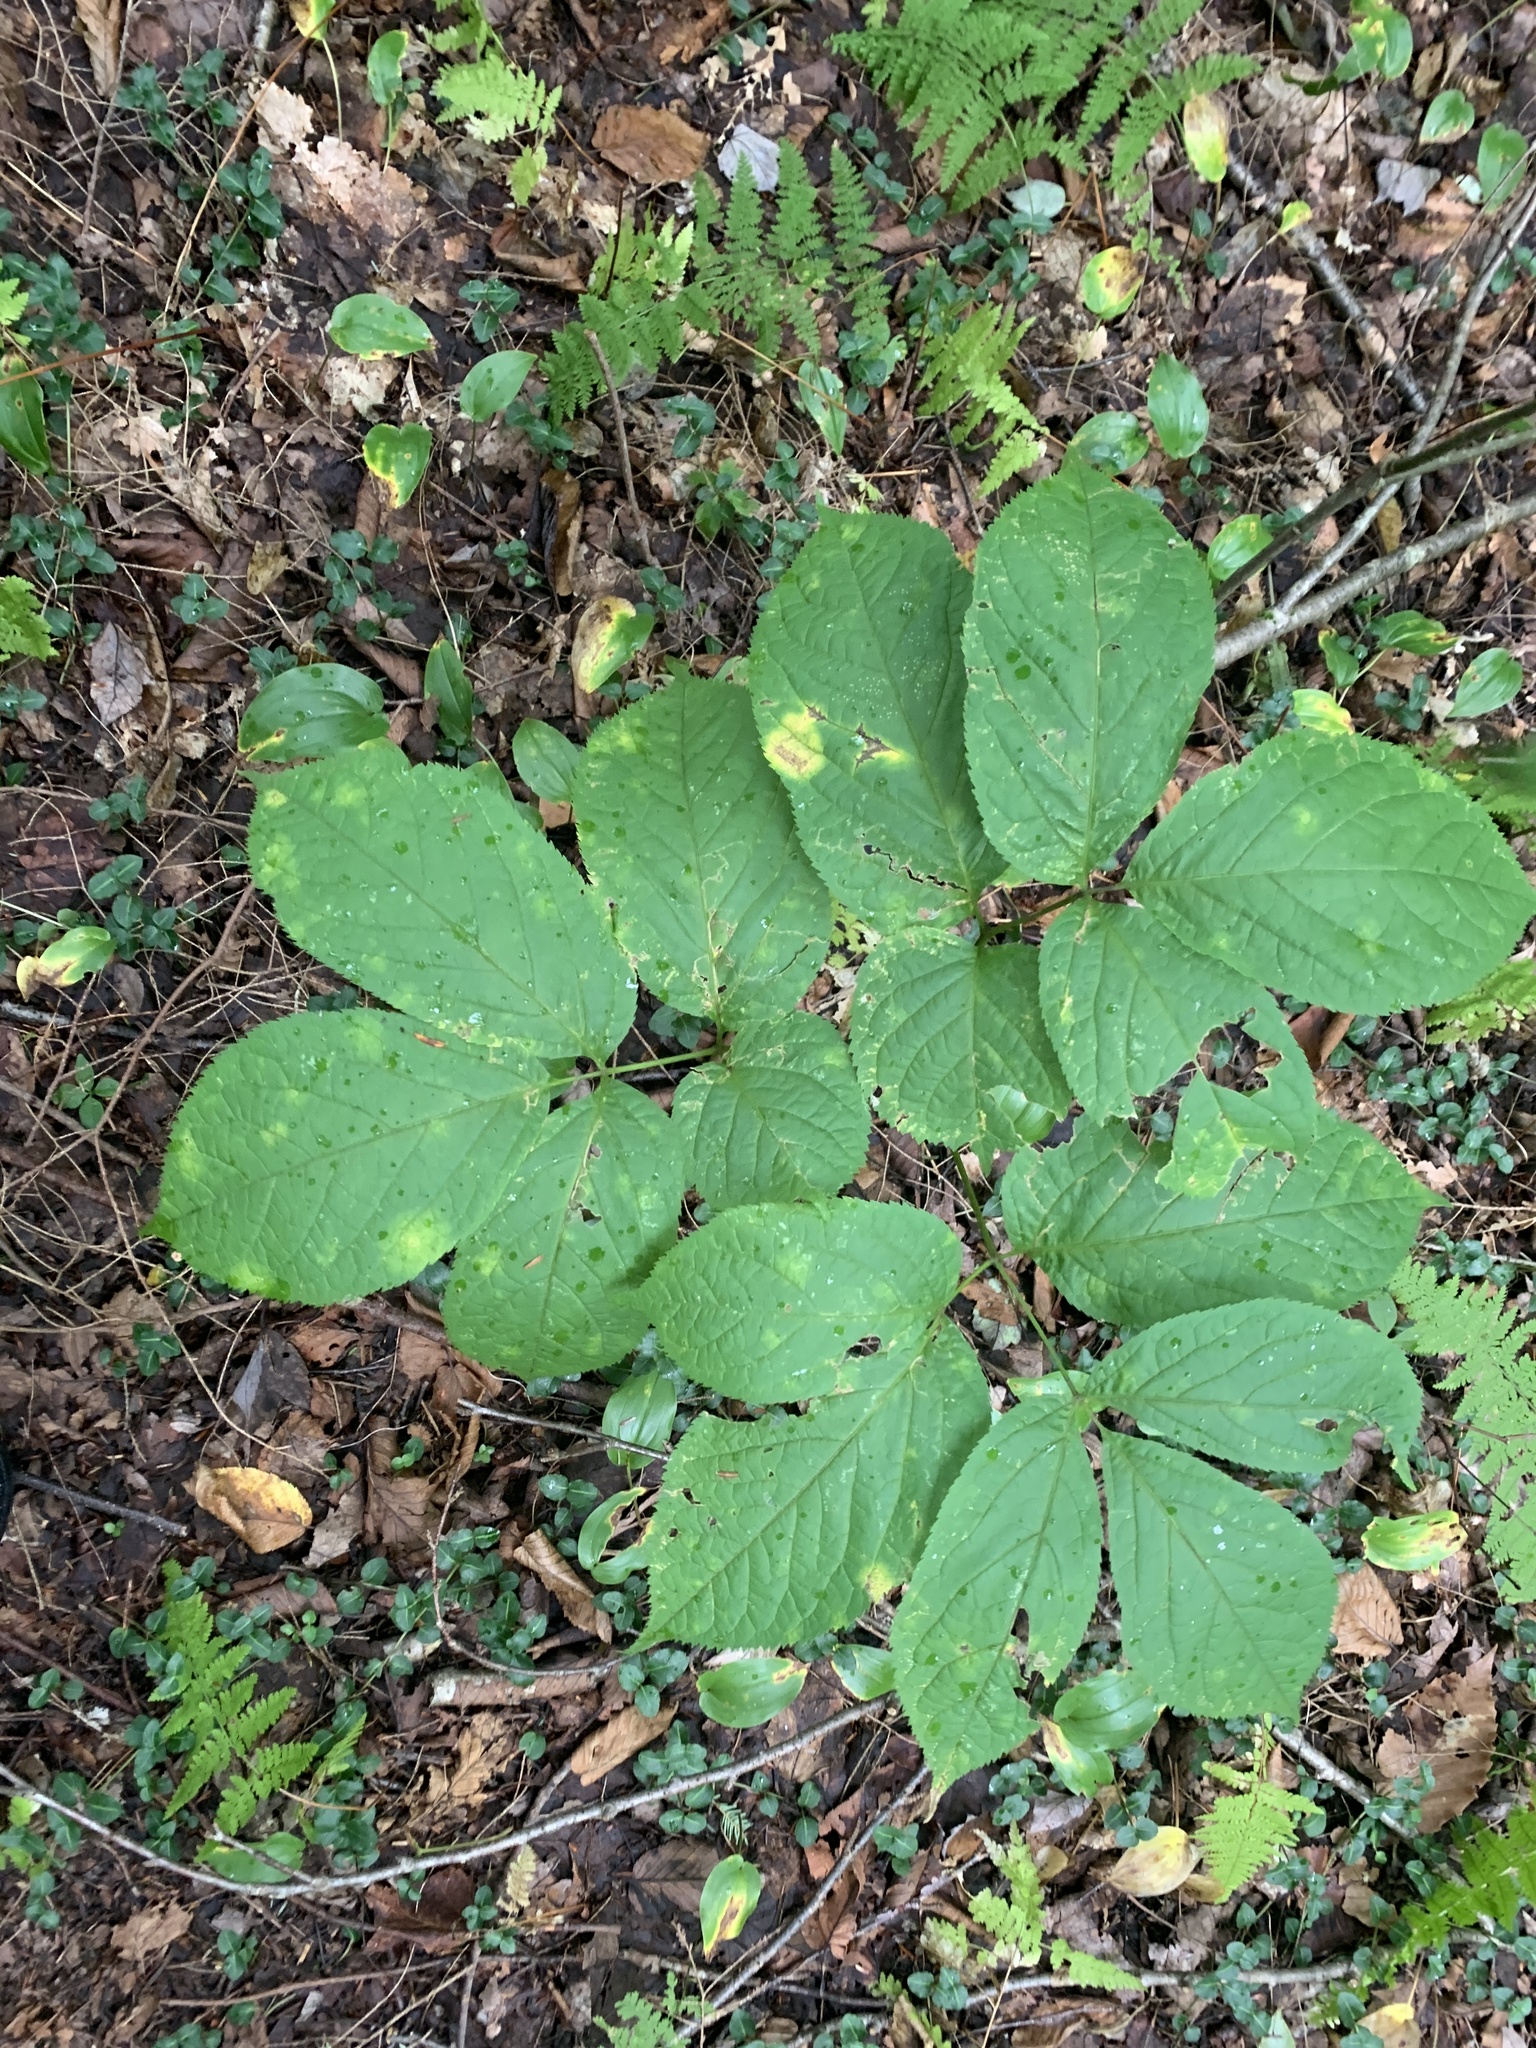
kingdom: Plantae
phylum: Tracheophyta
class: Magnoliopsida
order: Apiales
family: Araliaceae
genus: Aralia
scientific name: Aralia nudicaulis
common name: Wild sarsaparilla
